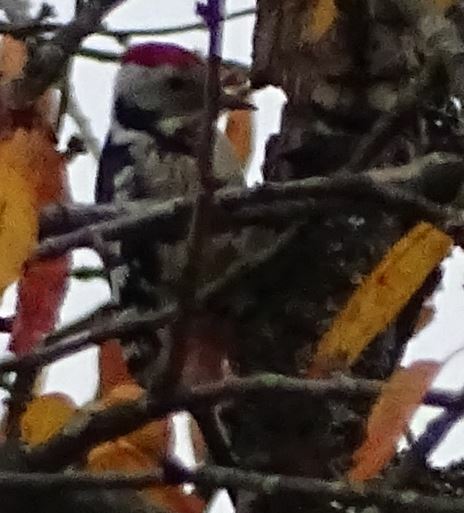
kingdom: Animalia
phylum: Chordata
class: Aves
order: Piciformes
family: Picidae
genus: Dendrocoptes
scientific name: Dendrocoptes medius
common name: Middle spotted woodpecker
